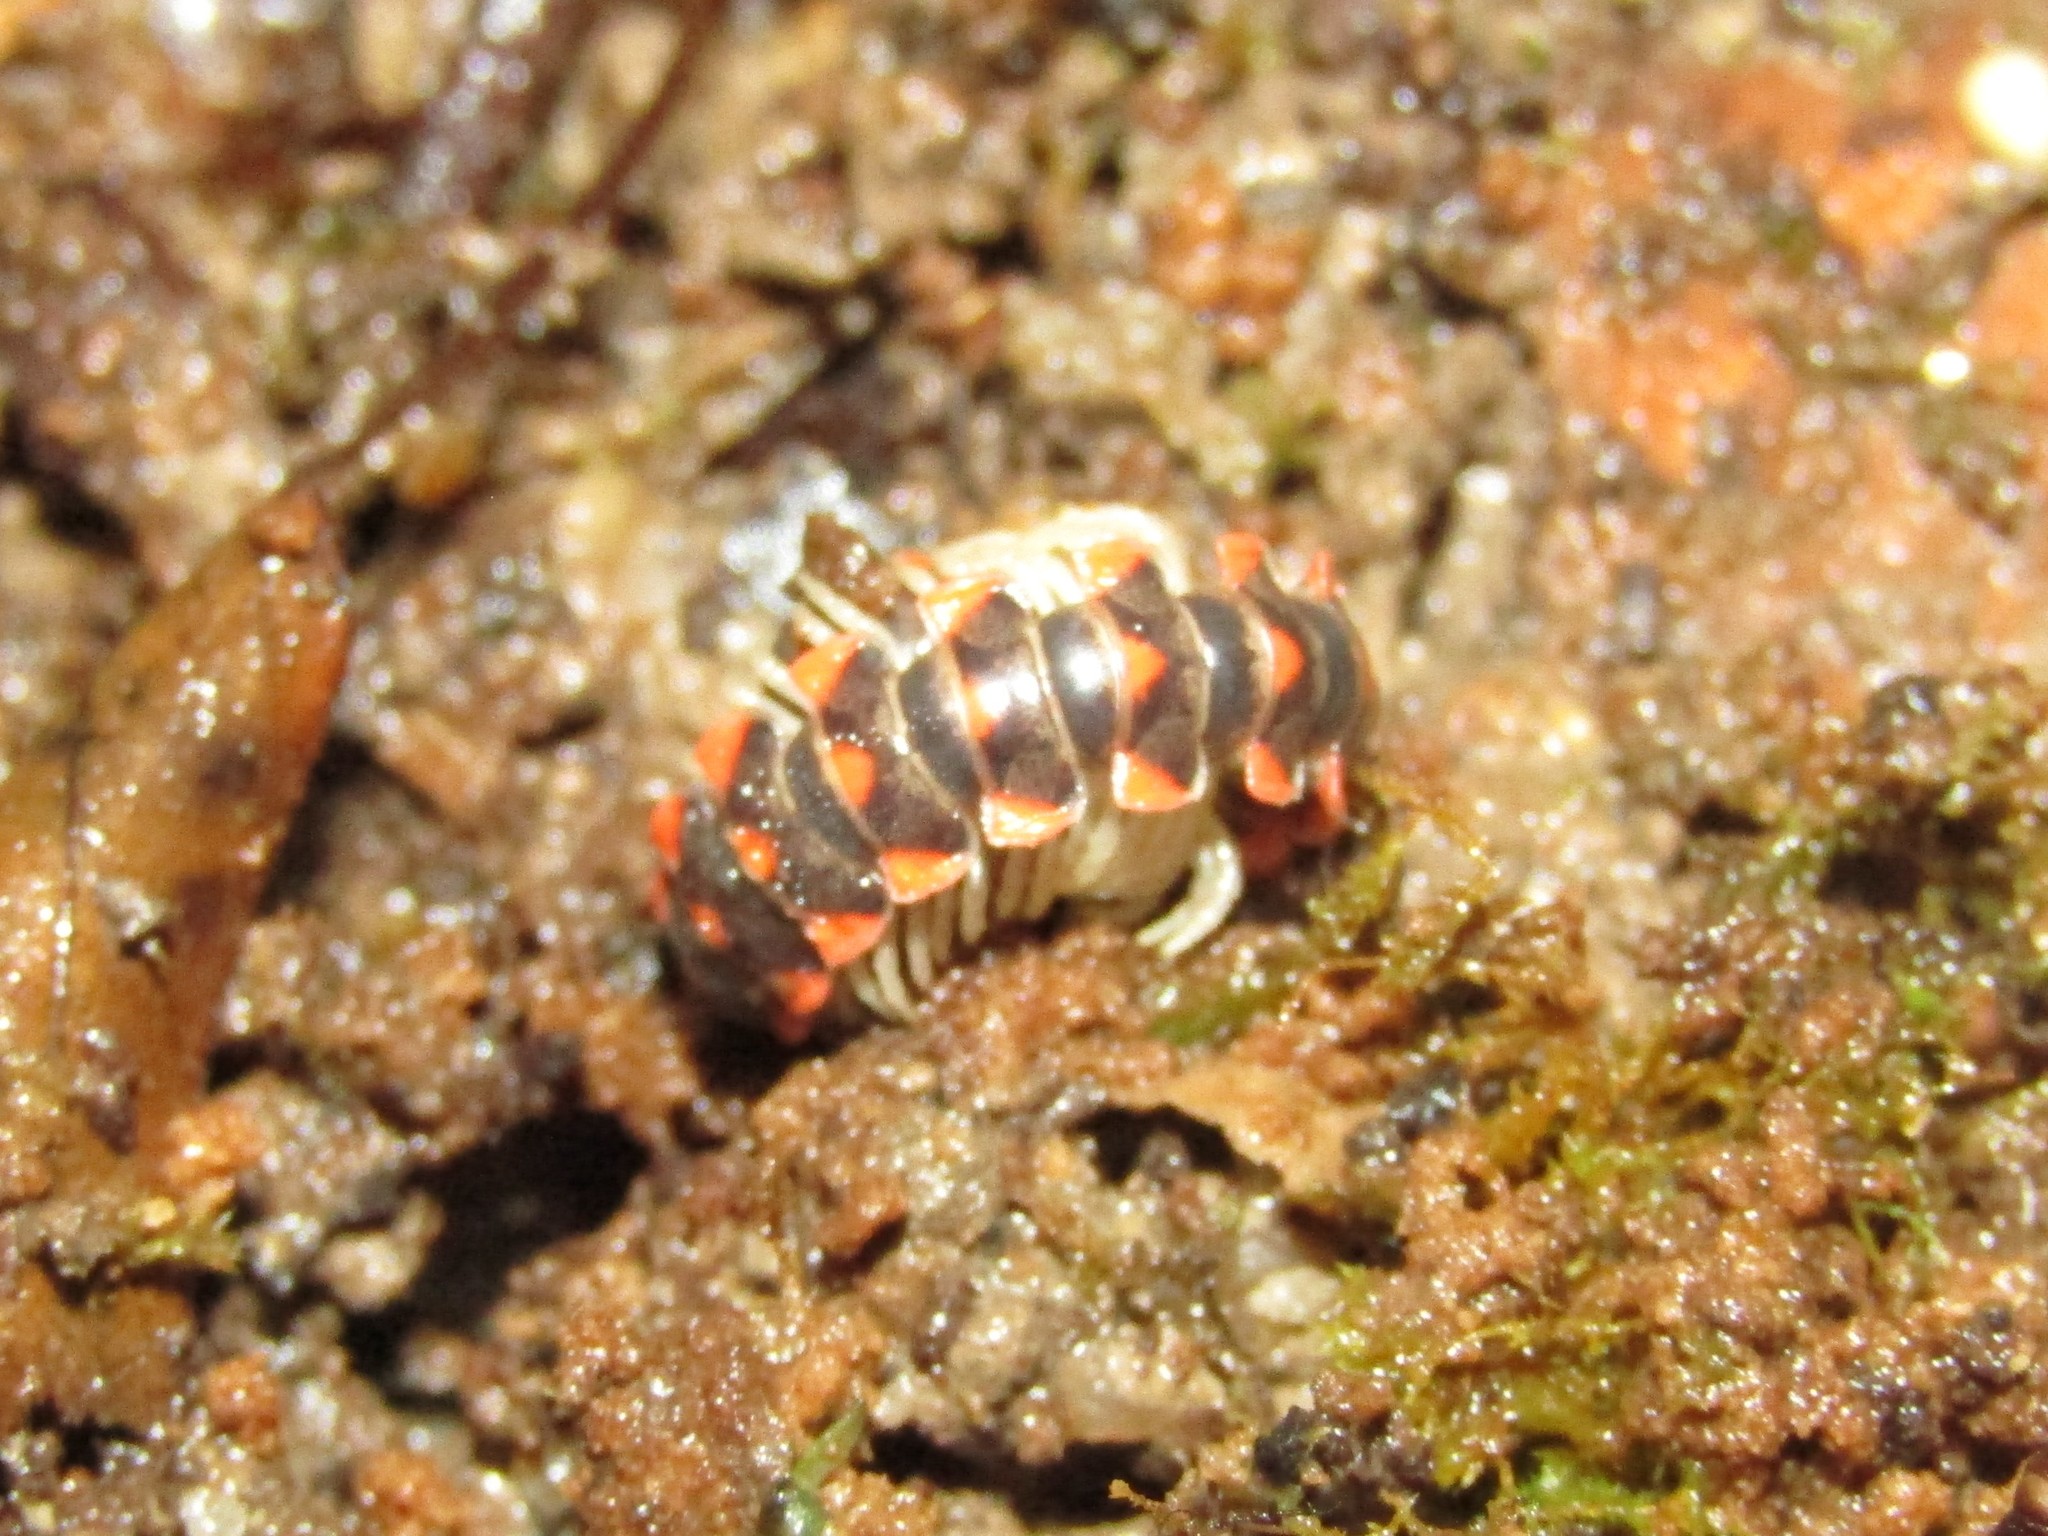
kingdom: Animalia
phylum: Arthropoda
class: Diplopoda
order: Polydesmida
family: Xystodesmidae
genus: Euryurus
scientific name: Euryurus carolinensis
